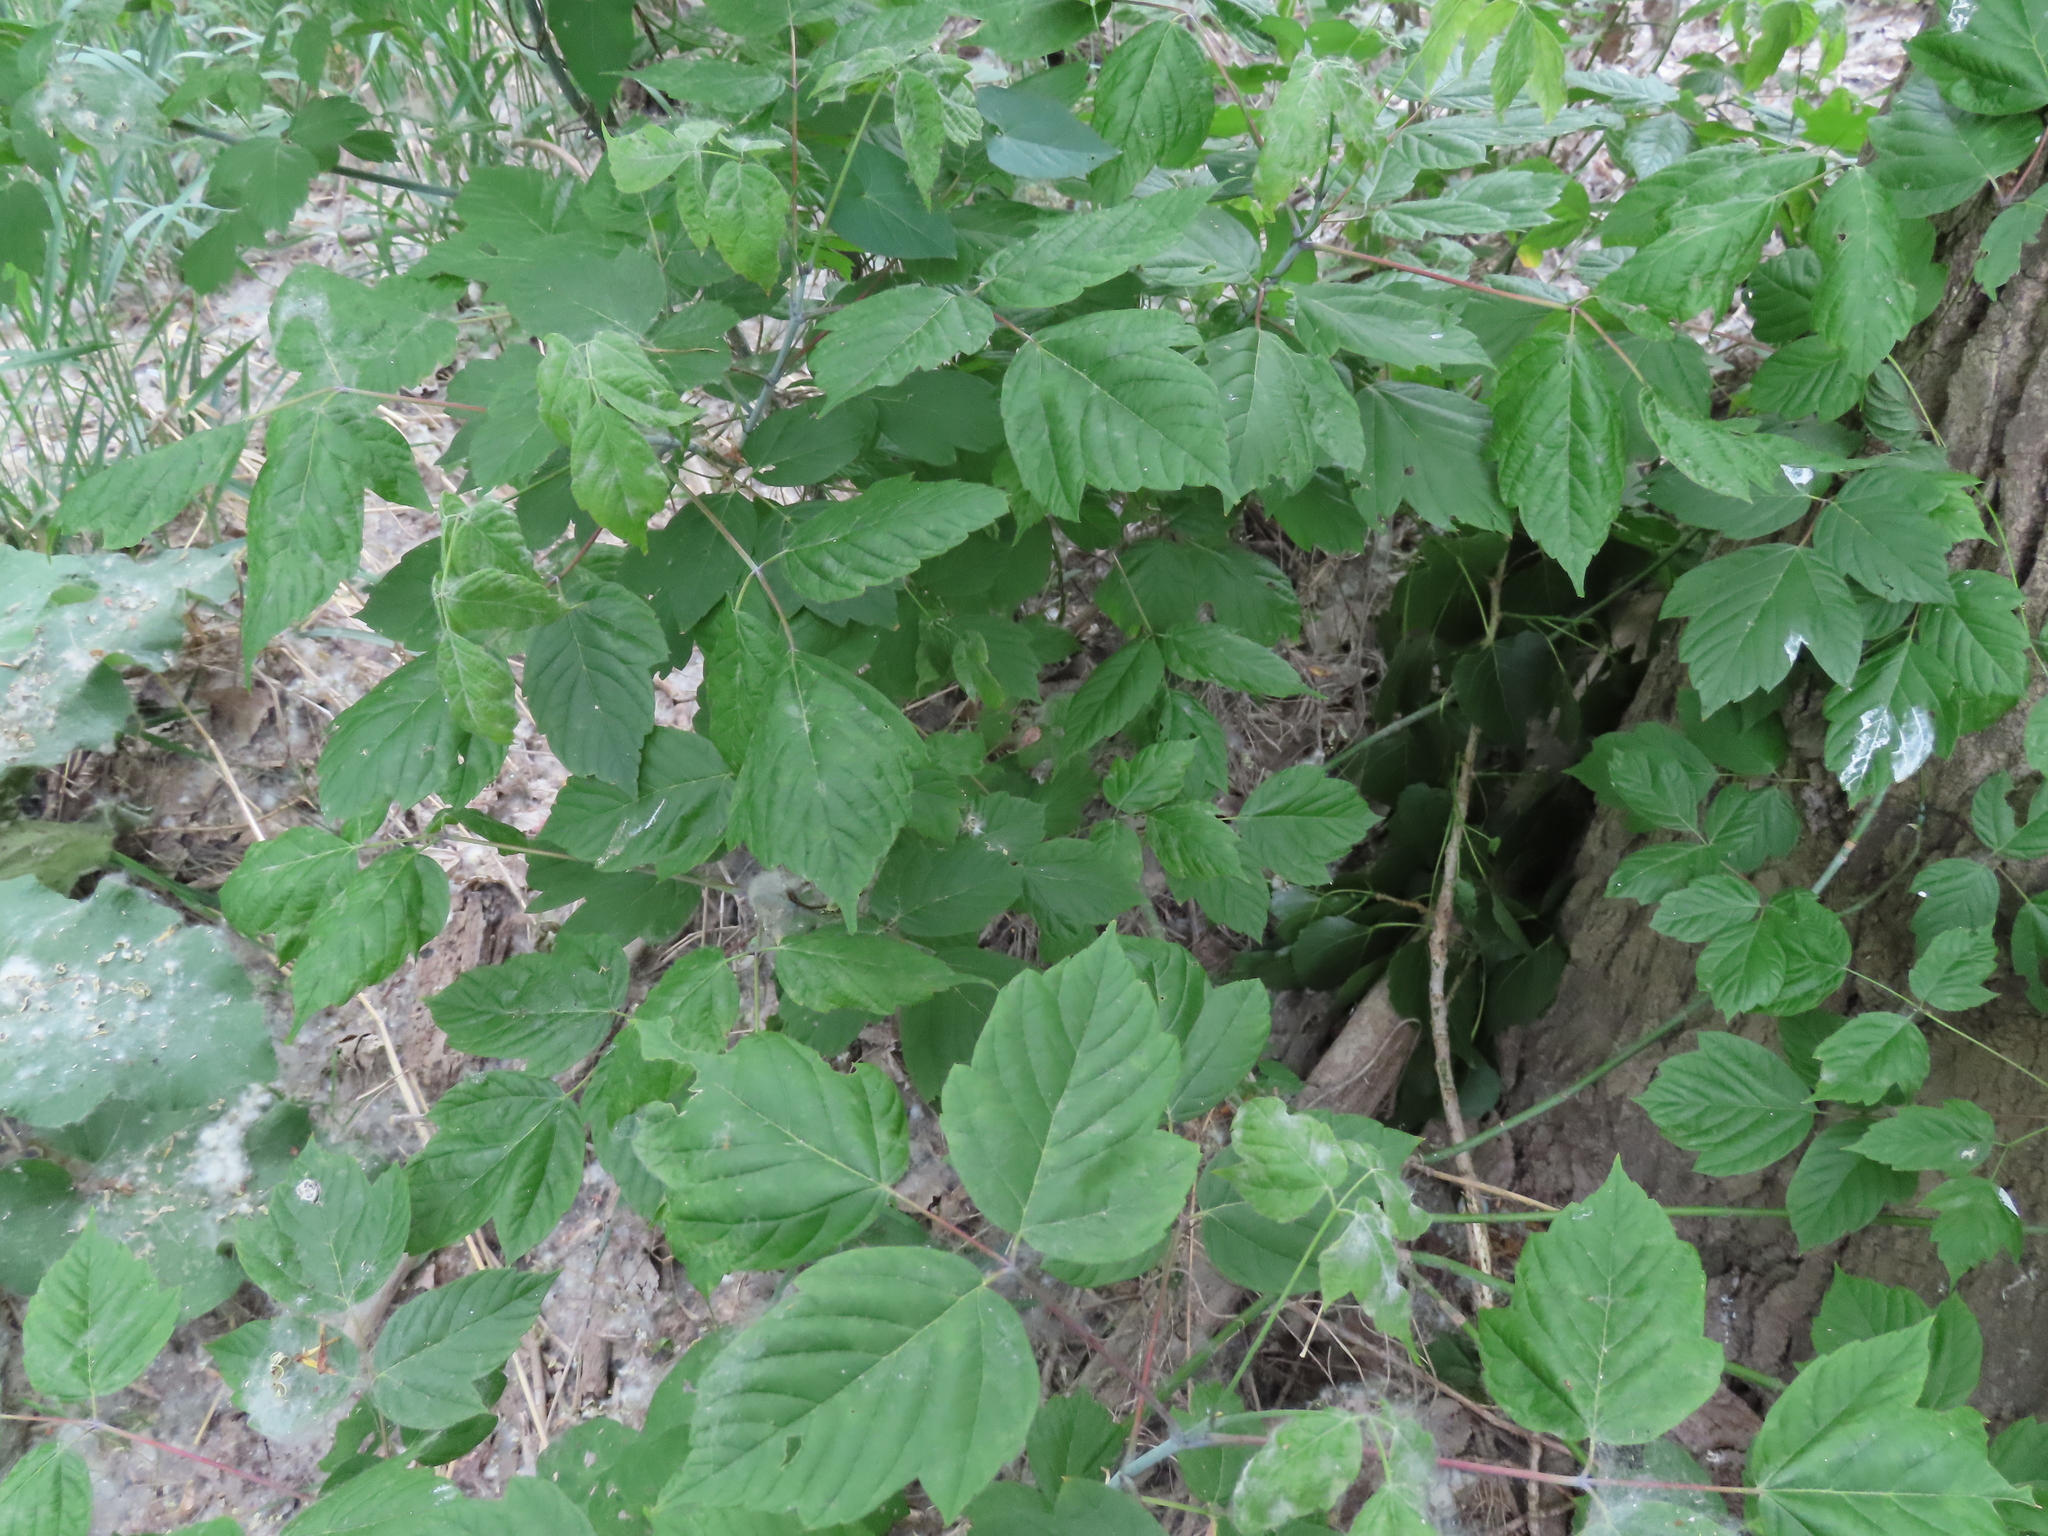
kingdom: Plantae
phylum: Tracheophyta
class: Magnoliopsida
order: Sapindales
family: Sapindaceae
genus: Acer
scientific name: Acer negundo
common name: Ashleaf maple
